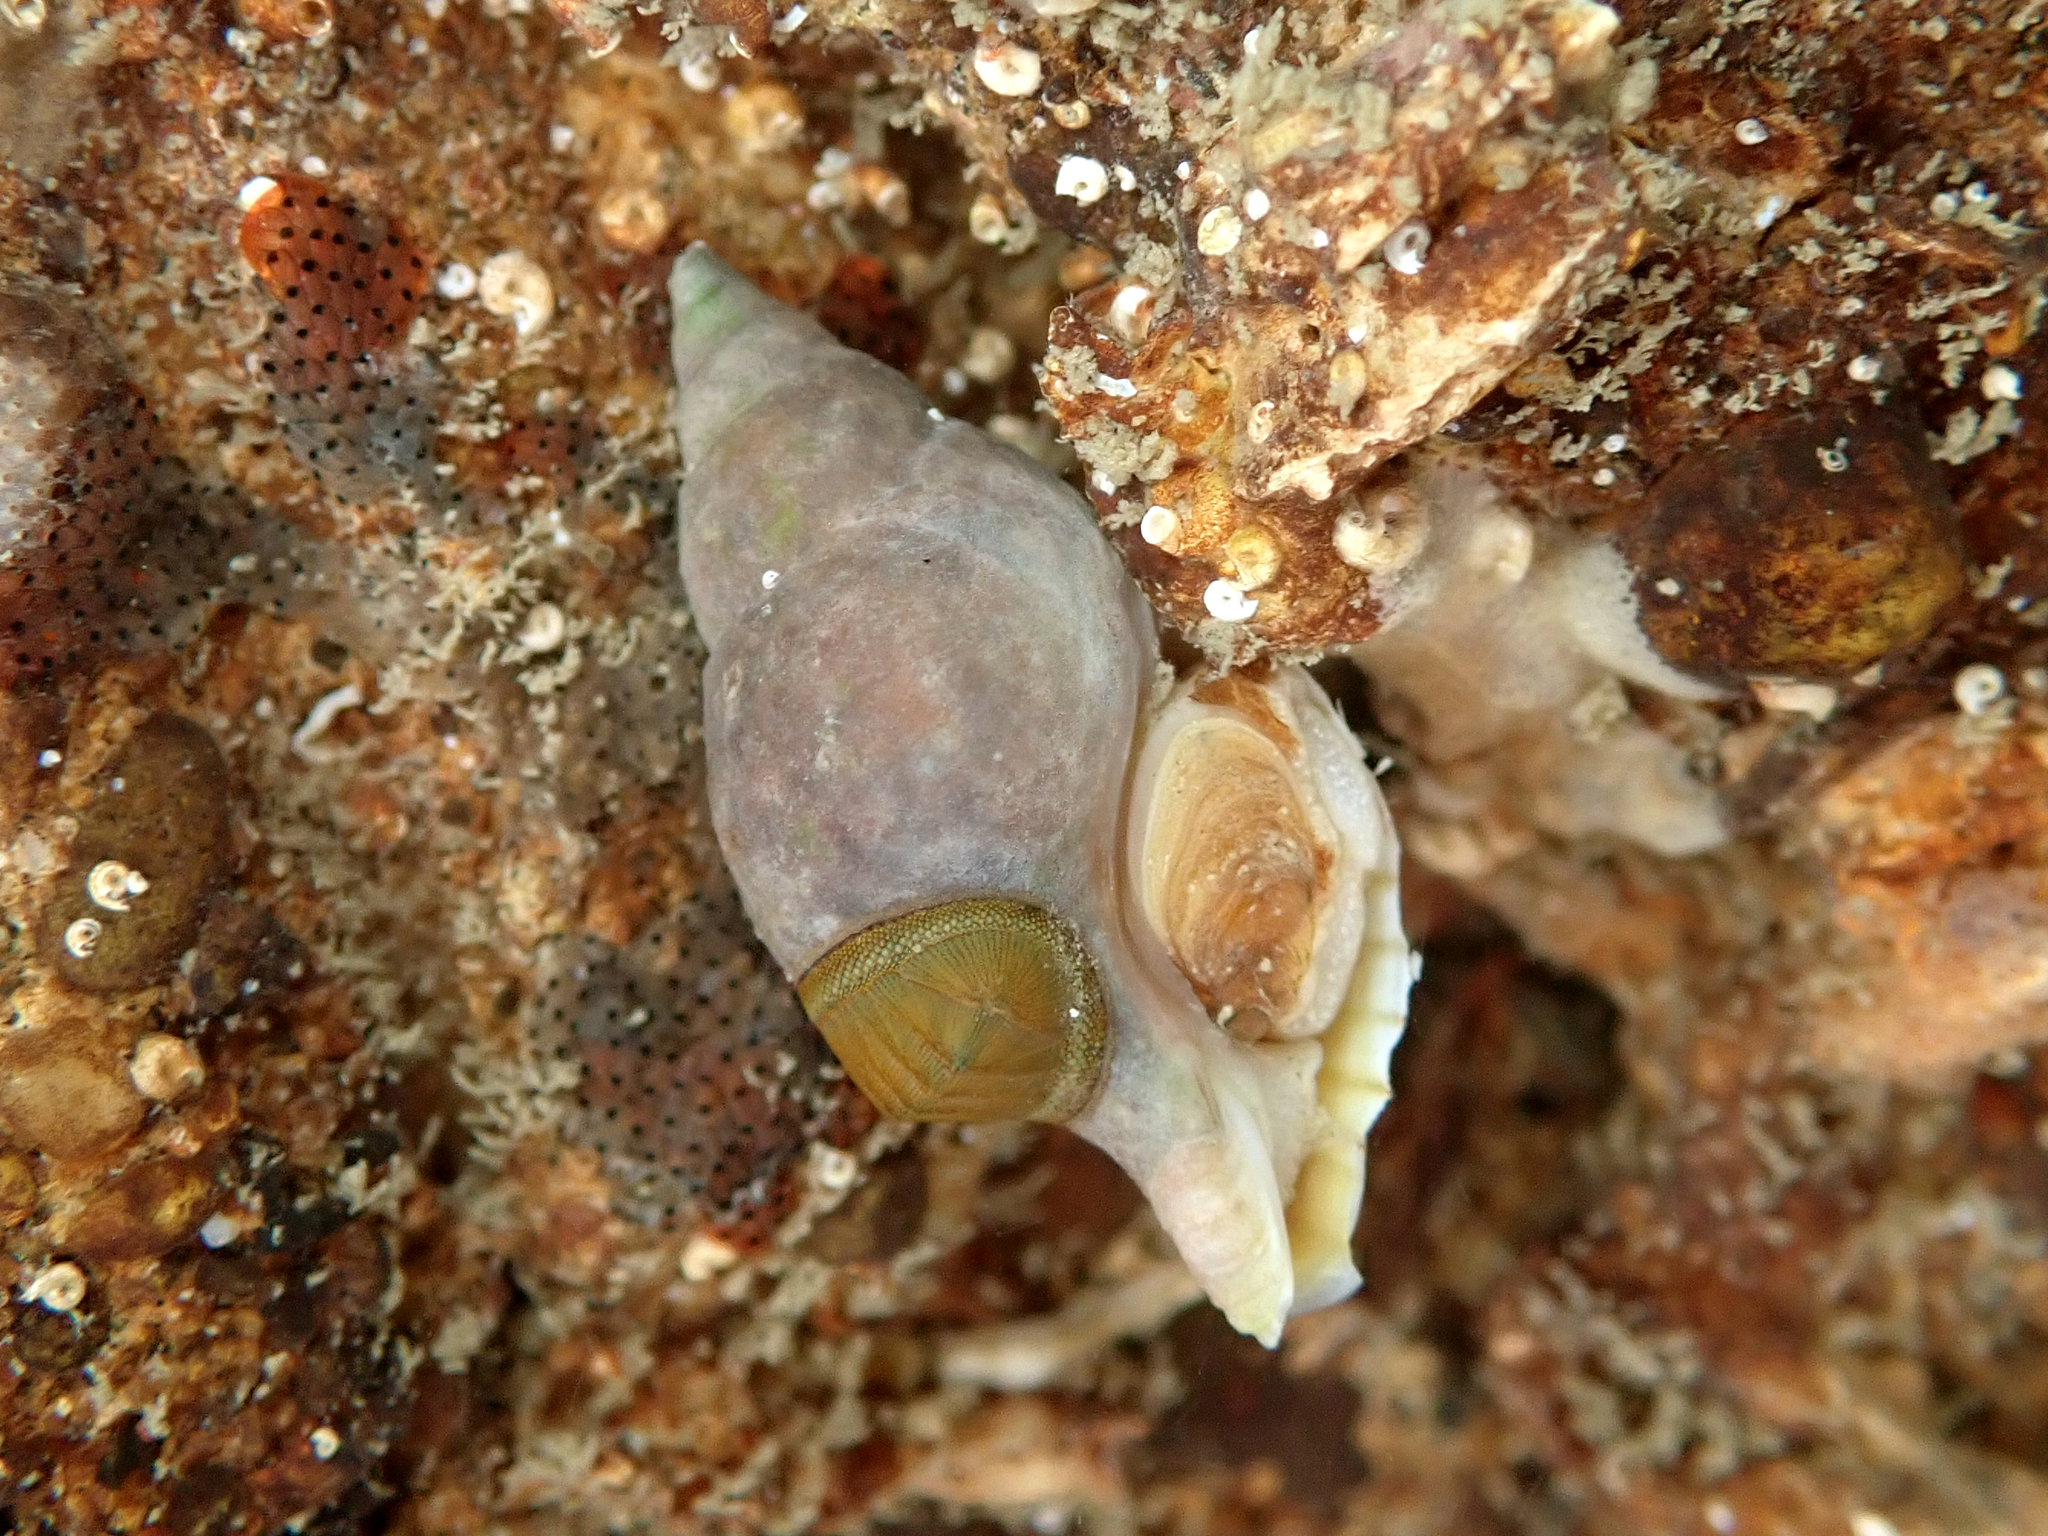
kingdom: Animalia
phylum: Mollusca
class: Gastropoda
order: Neogastropoda
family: Tudiclidae
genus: Buccinulum
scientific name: Buccinulum pertinax
